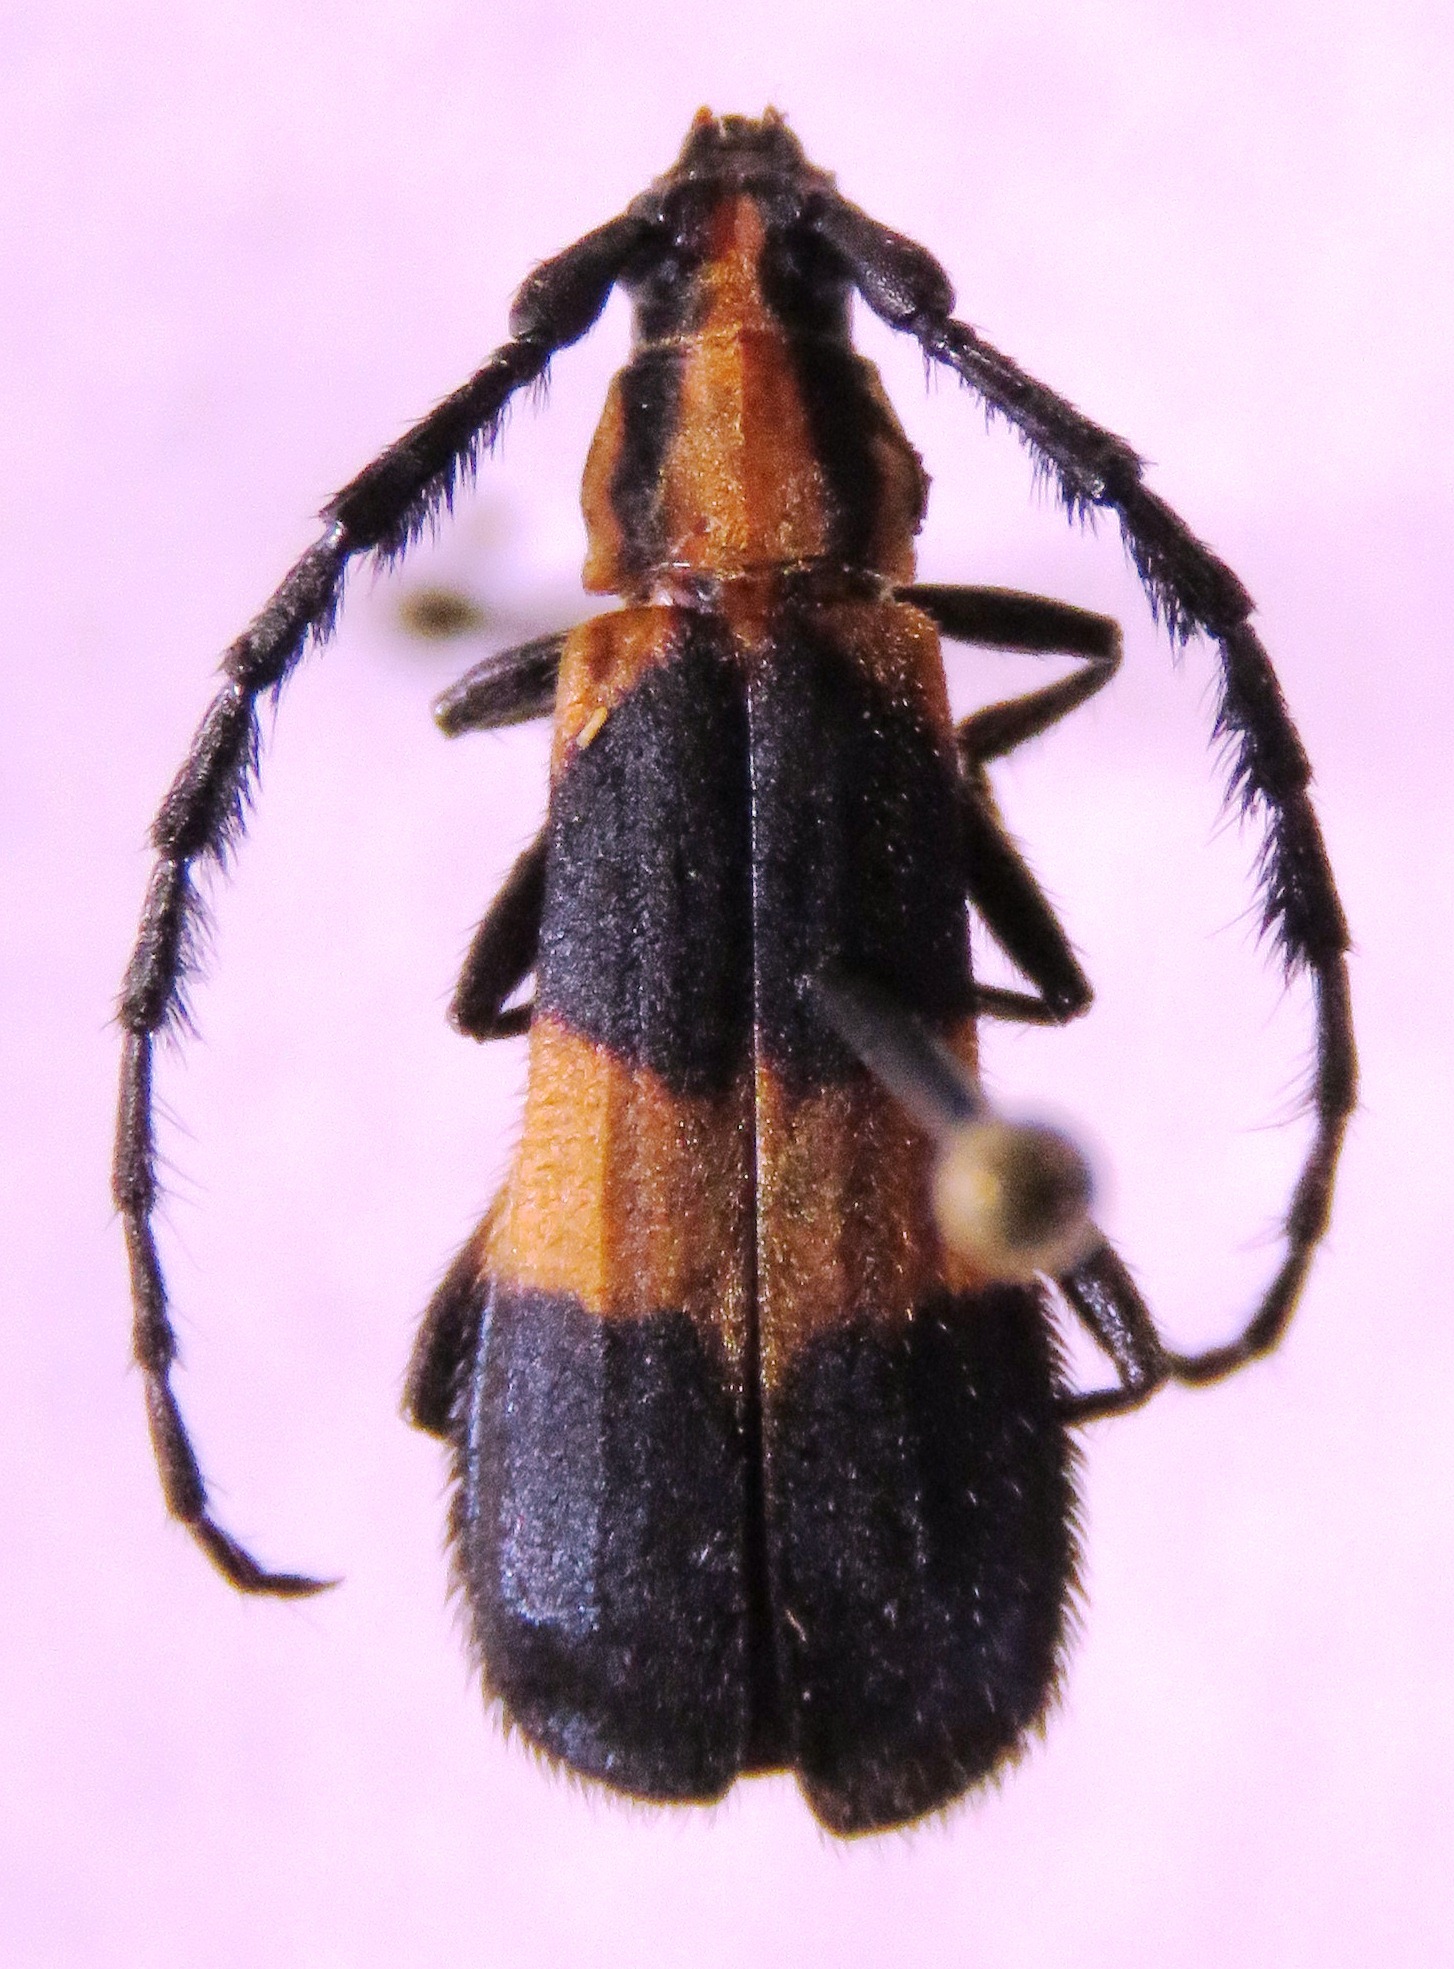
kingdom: Animalia
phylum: Arthropoda
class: Insecta
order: Coleoptera
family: Cerambycidae
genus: Pteroplatus
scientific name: Pteroplatus bilineatus
